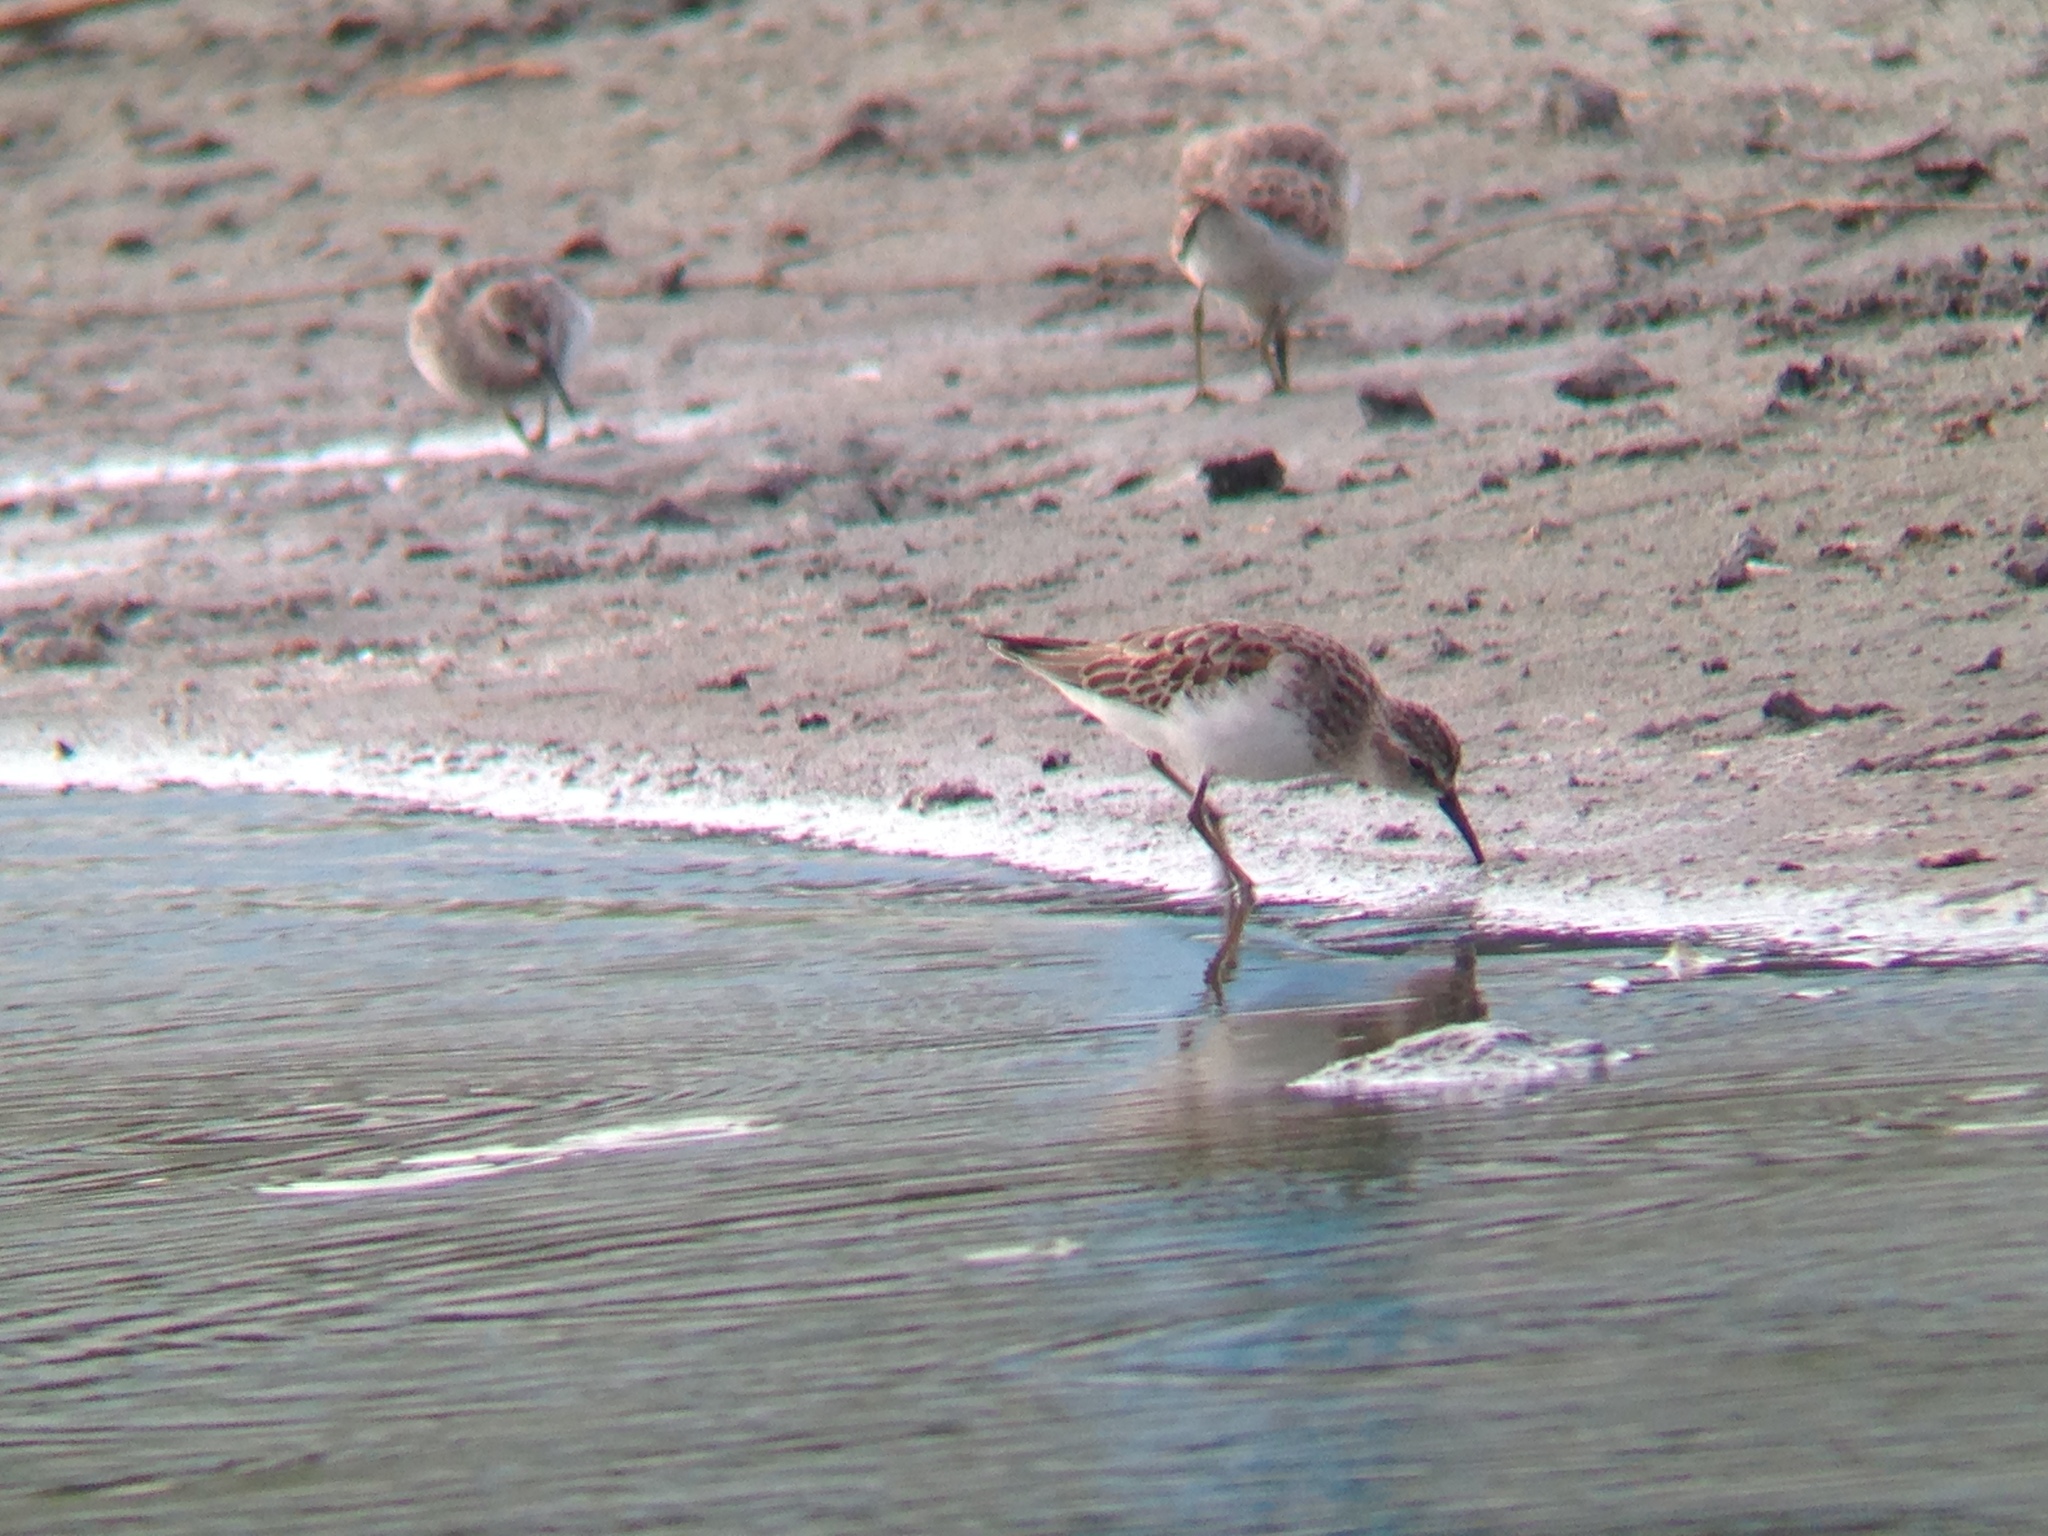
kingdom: Animalia
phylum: Chordata
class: Aves
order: Charadriiformes
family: Scolopacidae
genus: Calidris
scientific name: Calidris minutilla
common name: Least sandpiper
